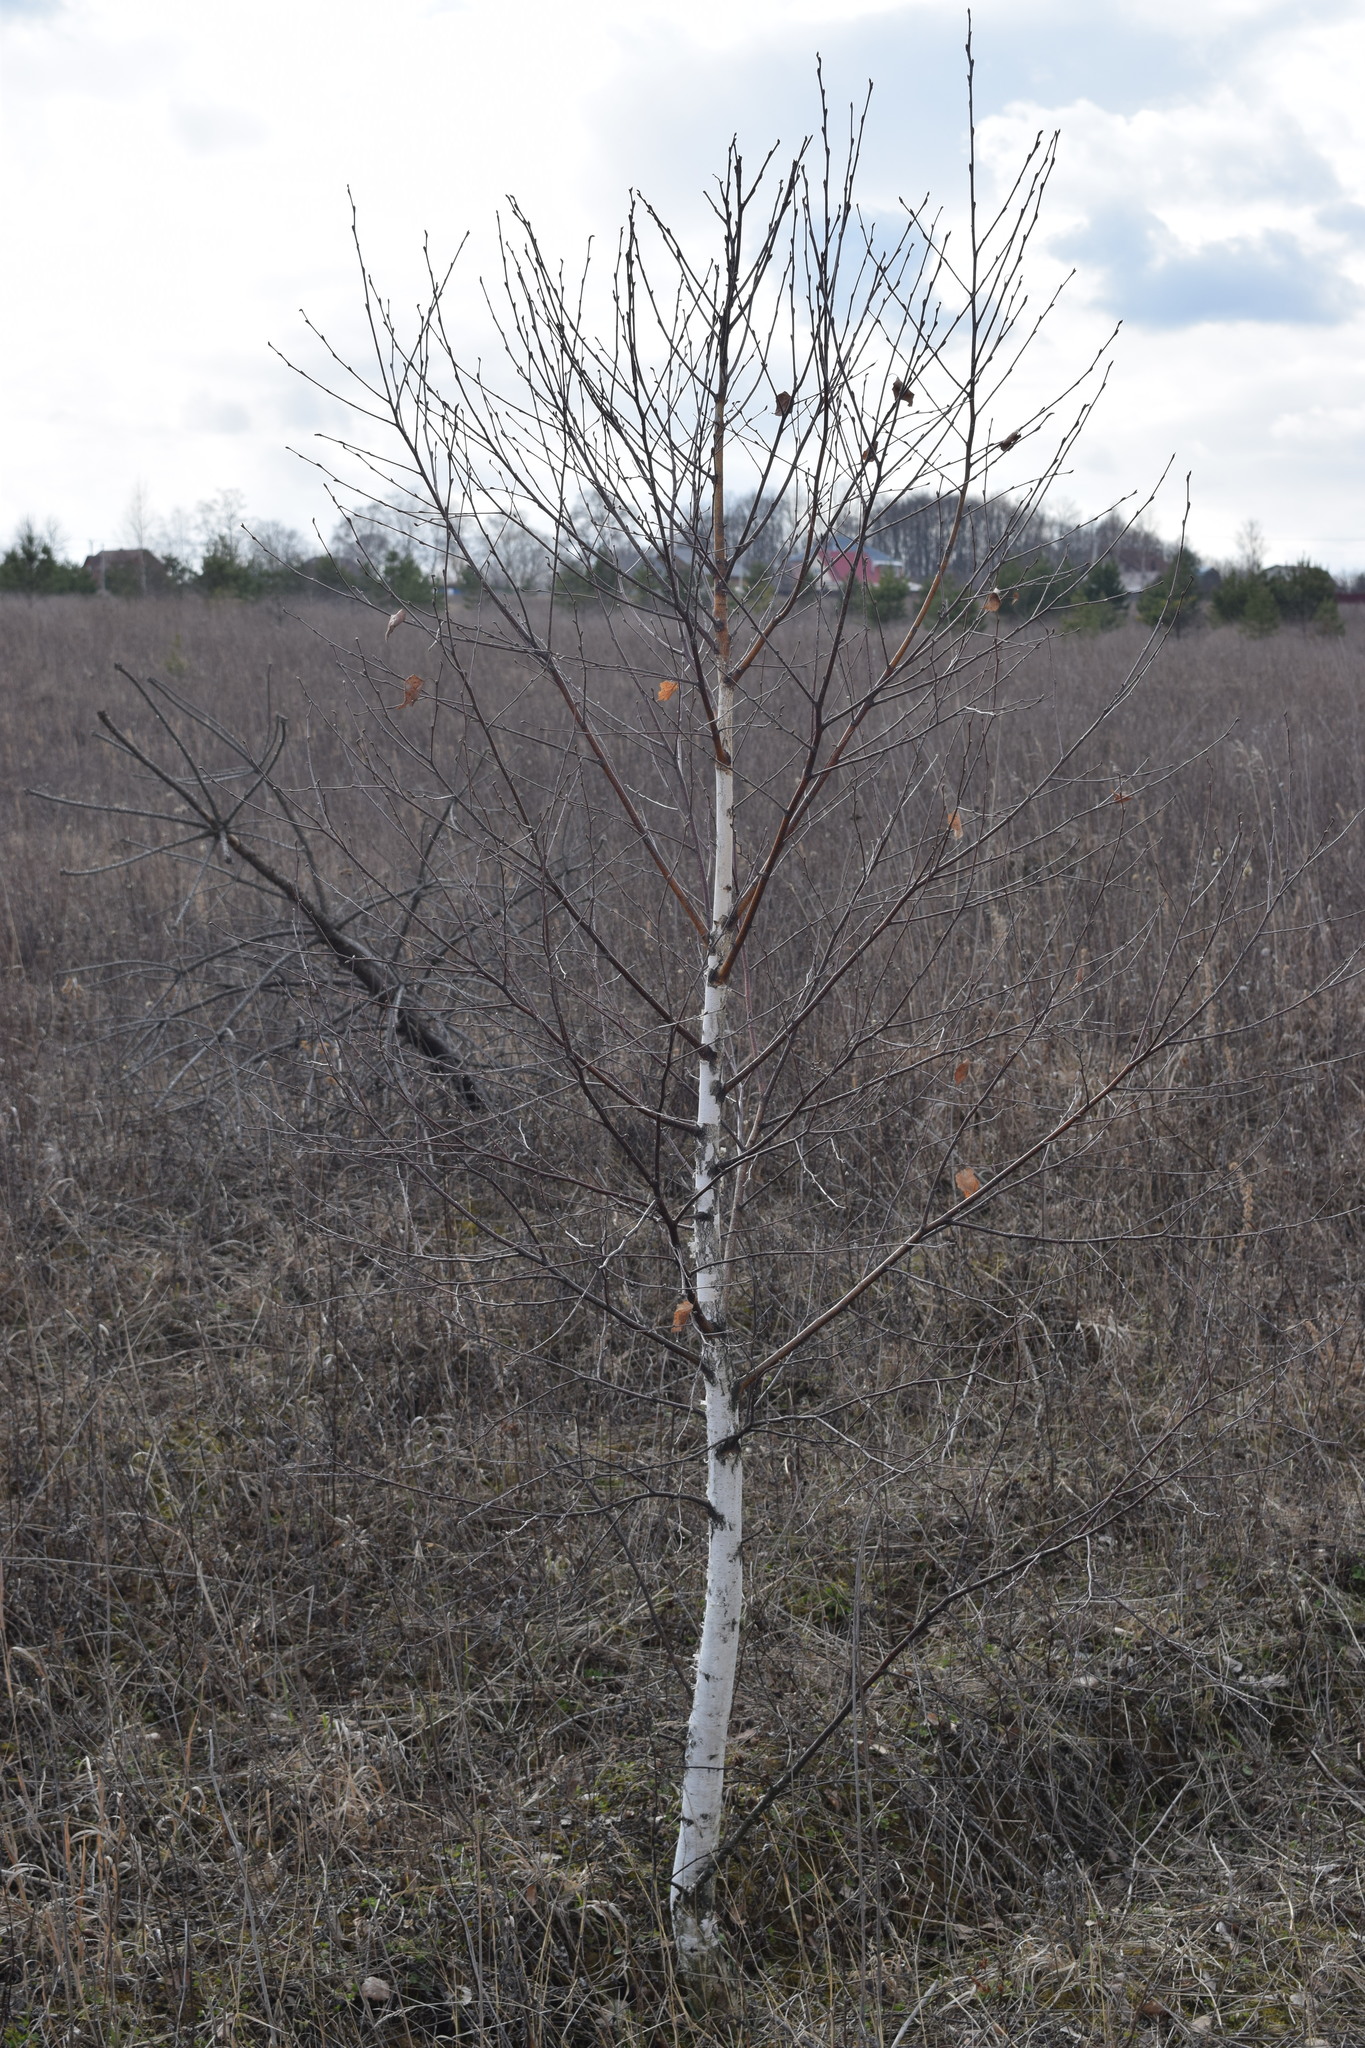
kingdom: Plantae
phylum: Tracheophyta
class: Magnoliopsida
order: Fagales
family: Betulaceae
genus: Betula
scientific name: Betula pendula
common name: Silver birch
